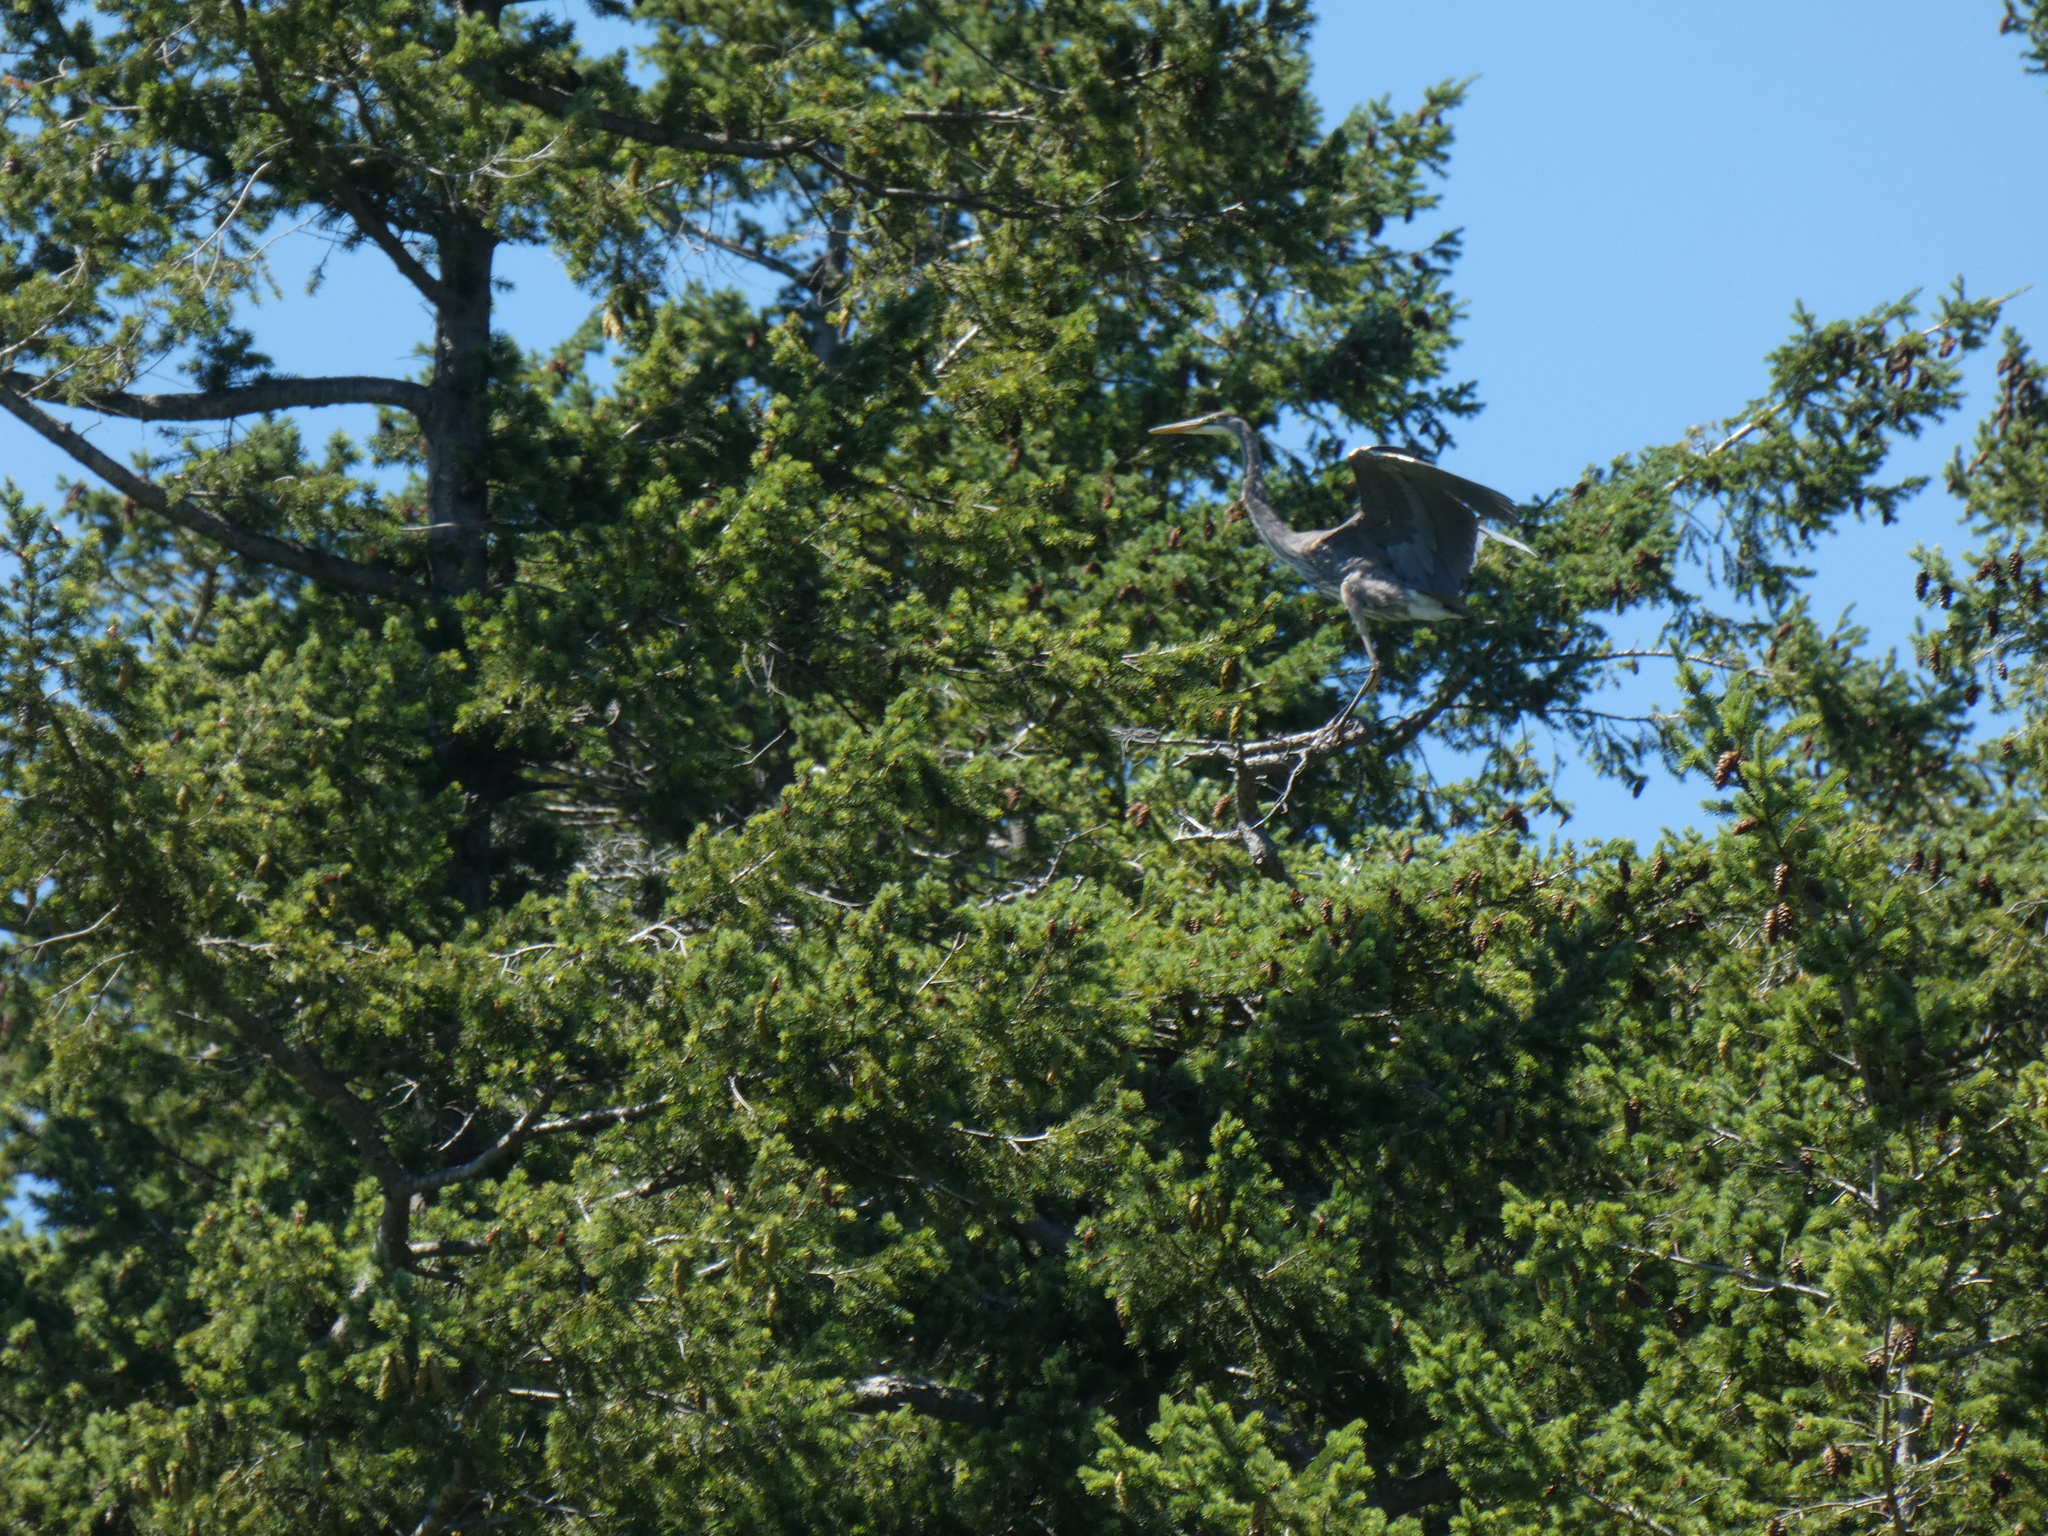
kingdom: Animalia
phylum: Chordata
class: Aves
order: Pelecaniformes
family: Ardeidae
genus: Ardea
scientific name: Ardea herodias
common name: Great blue heron
